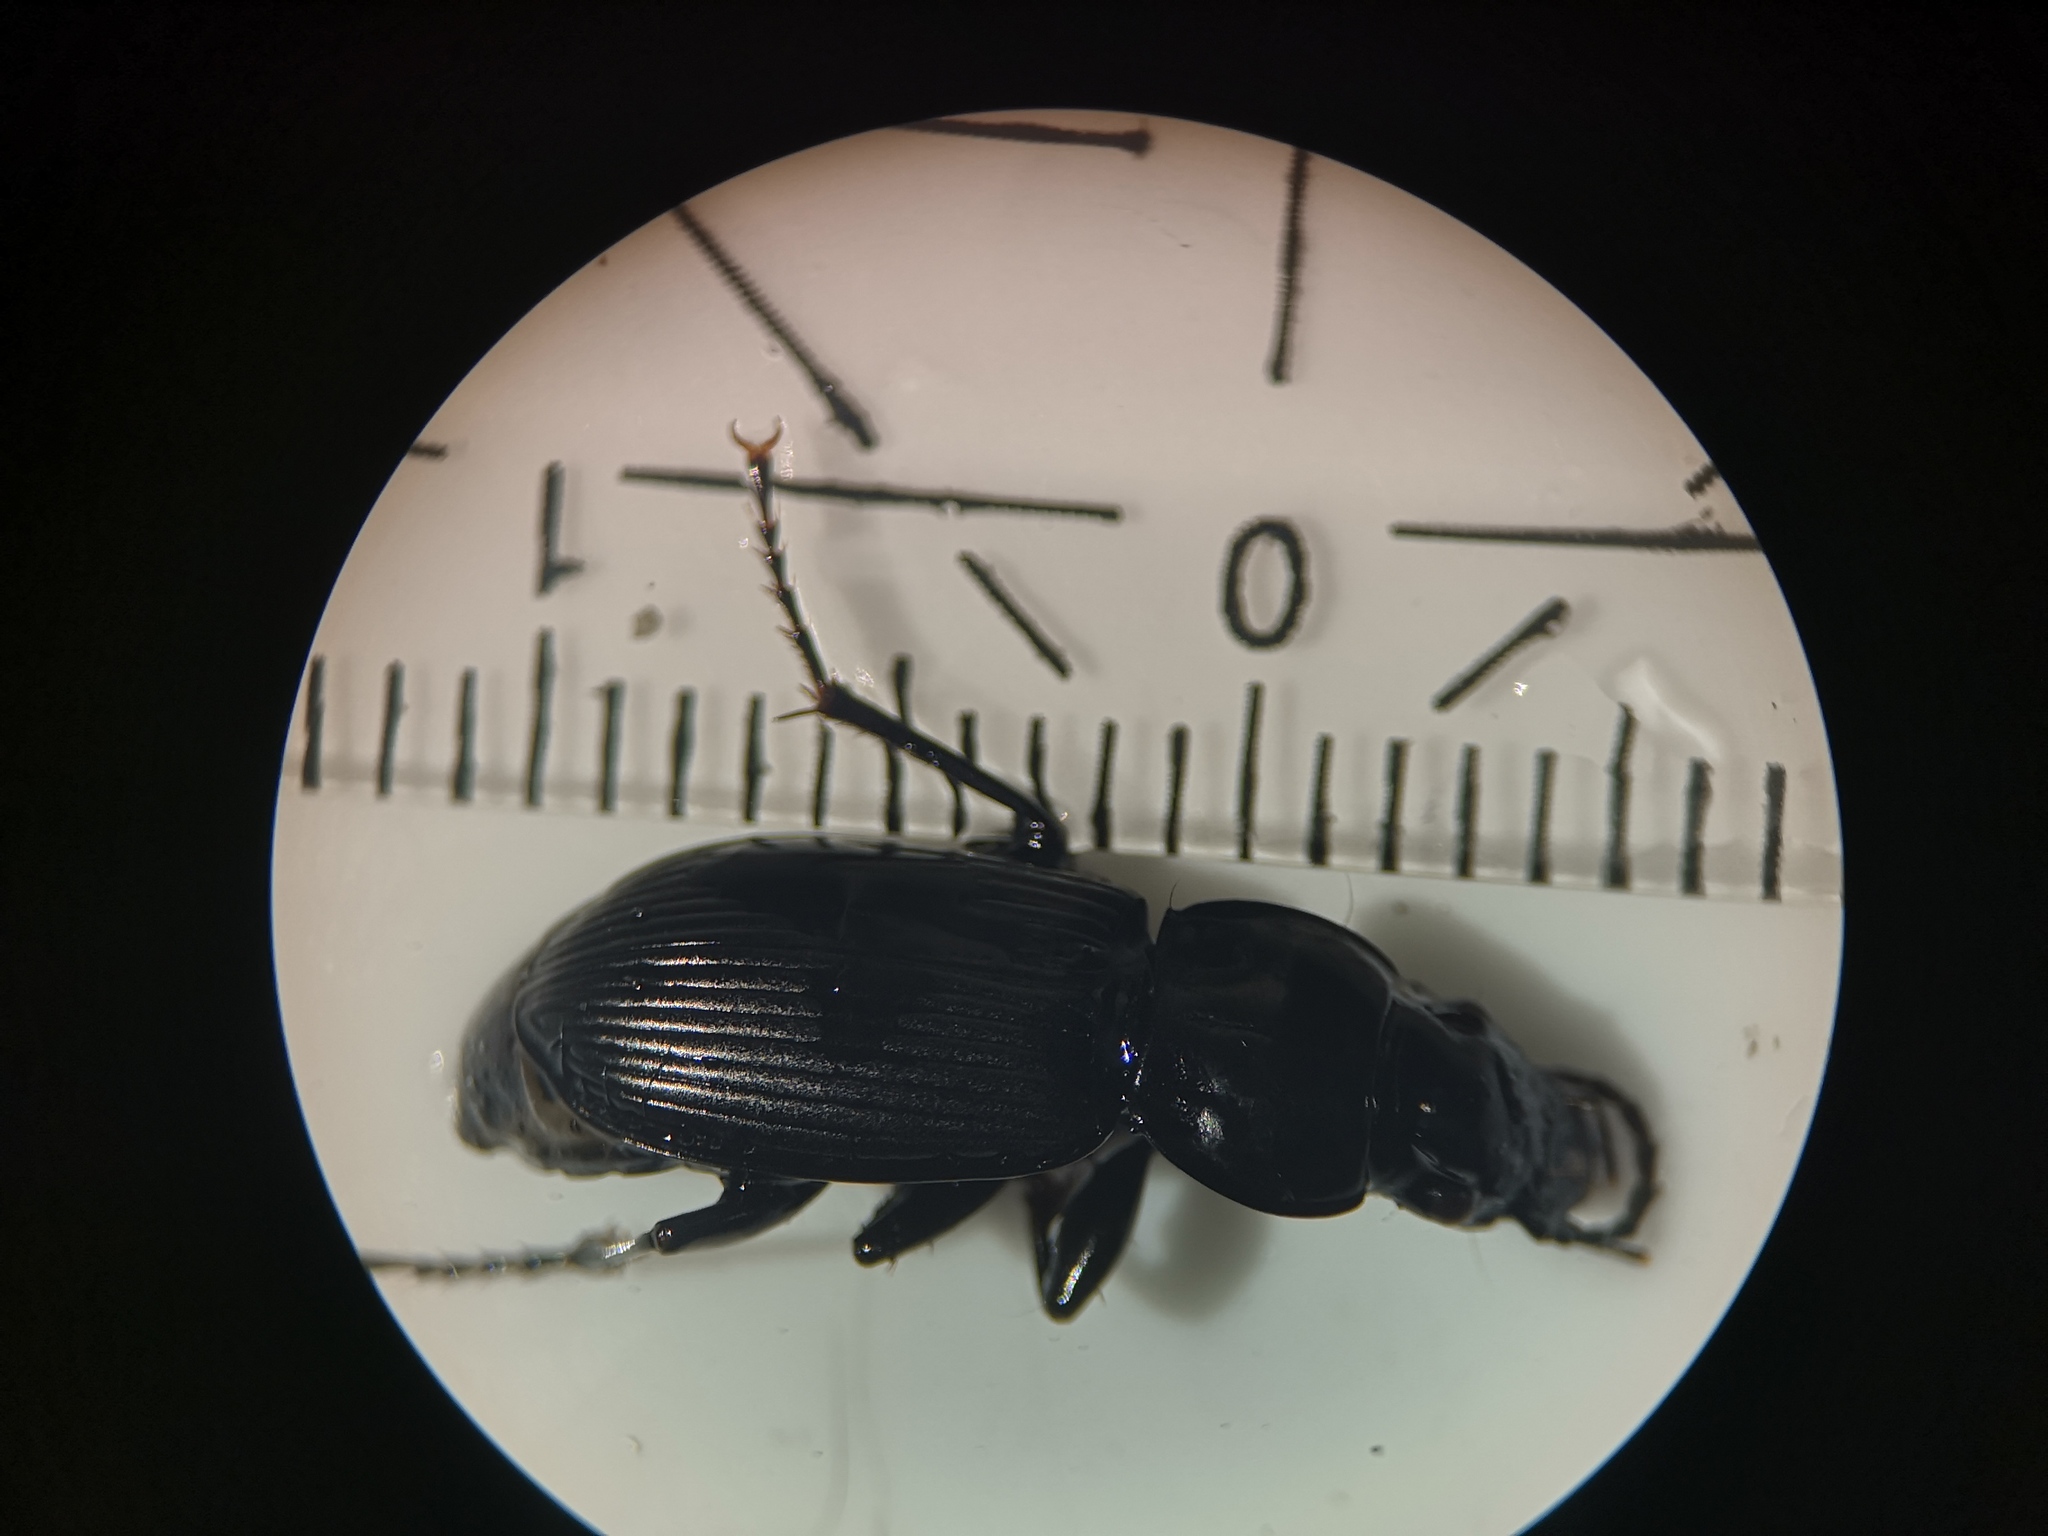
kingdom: Animalia
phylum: Arthropoda
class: Insecta
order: Coleoptera
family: Carabidae
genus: Pterostichus
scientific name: Pterostichus melanarius
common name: European dark harp ground beetle
